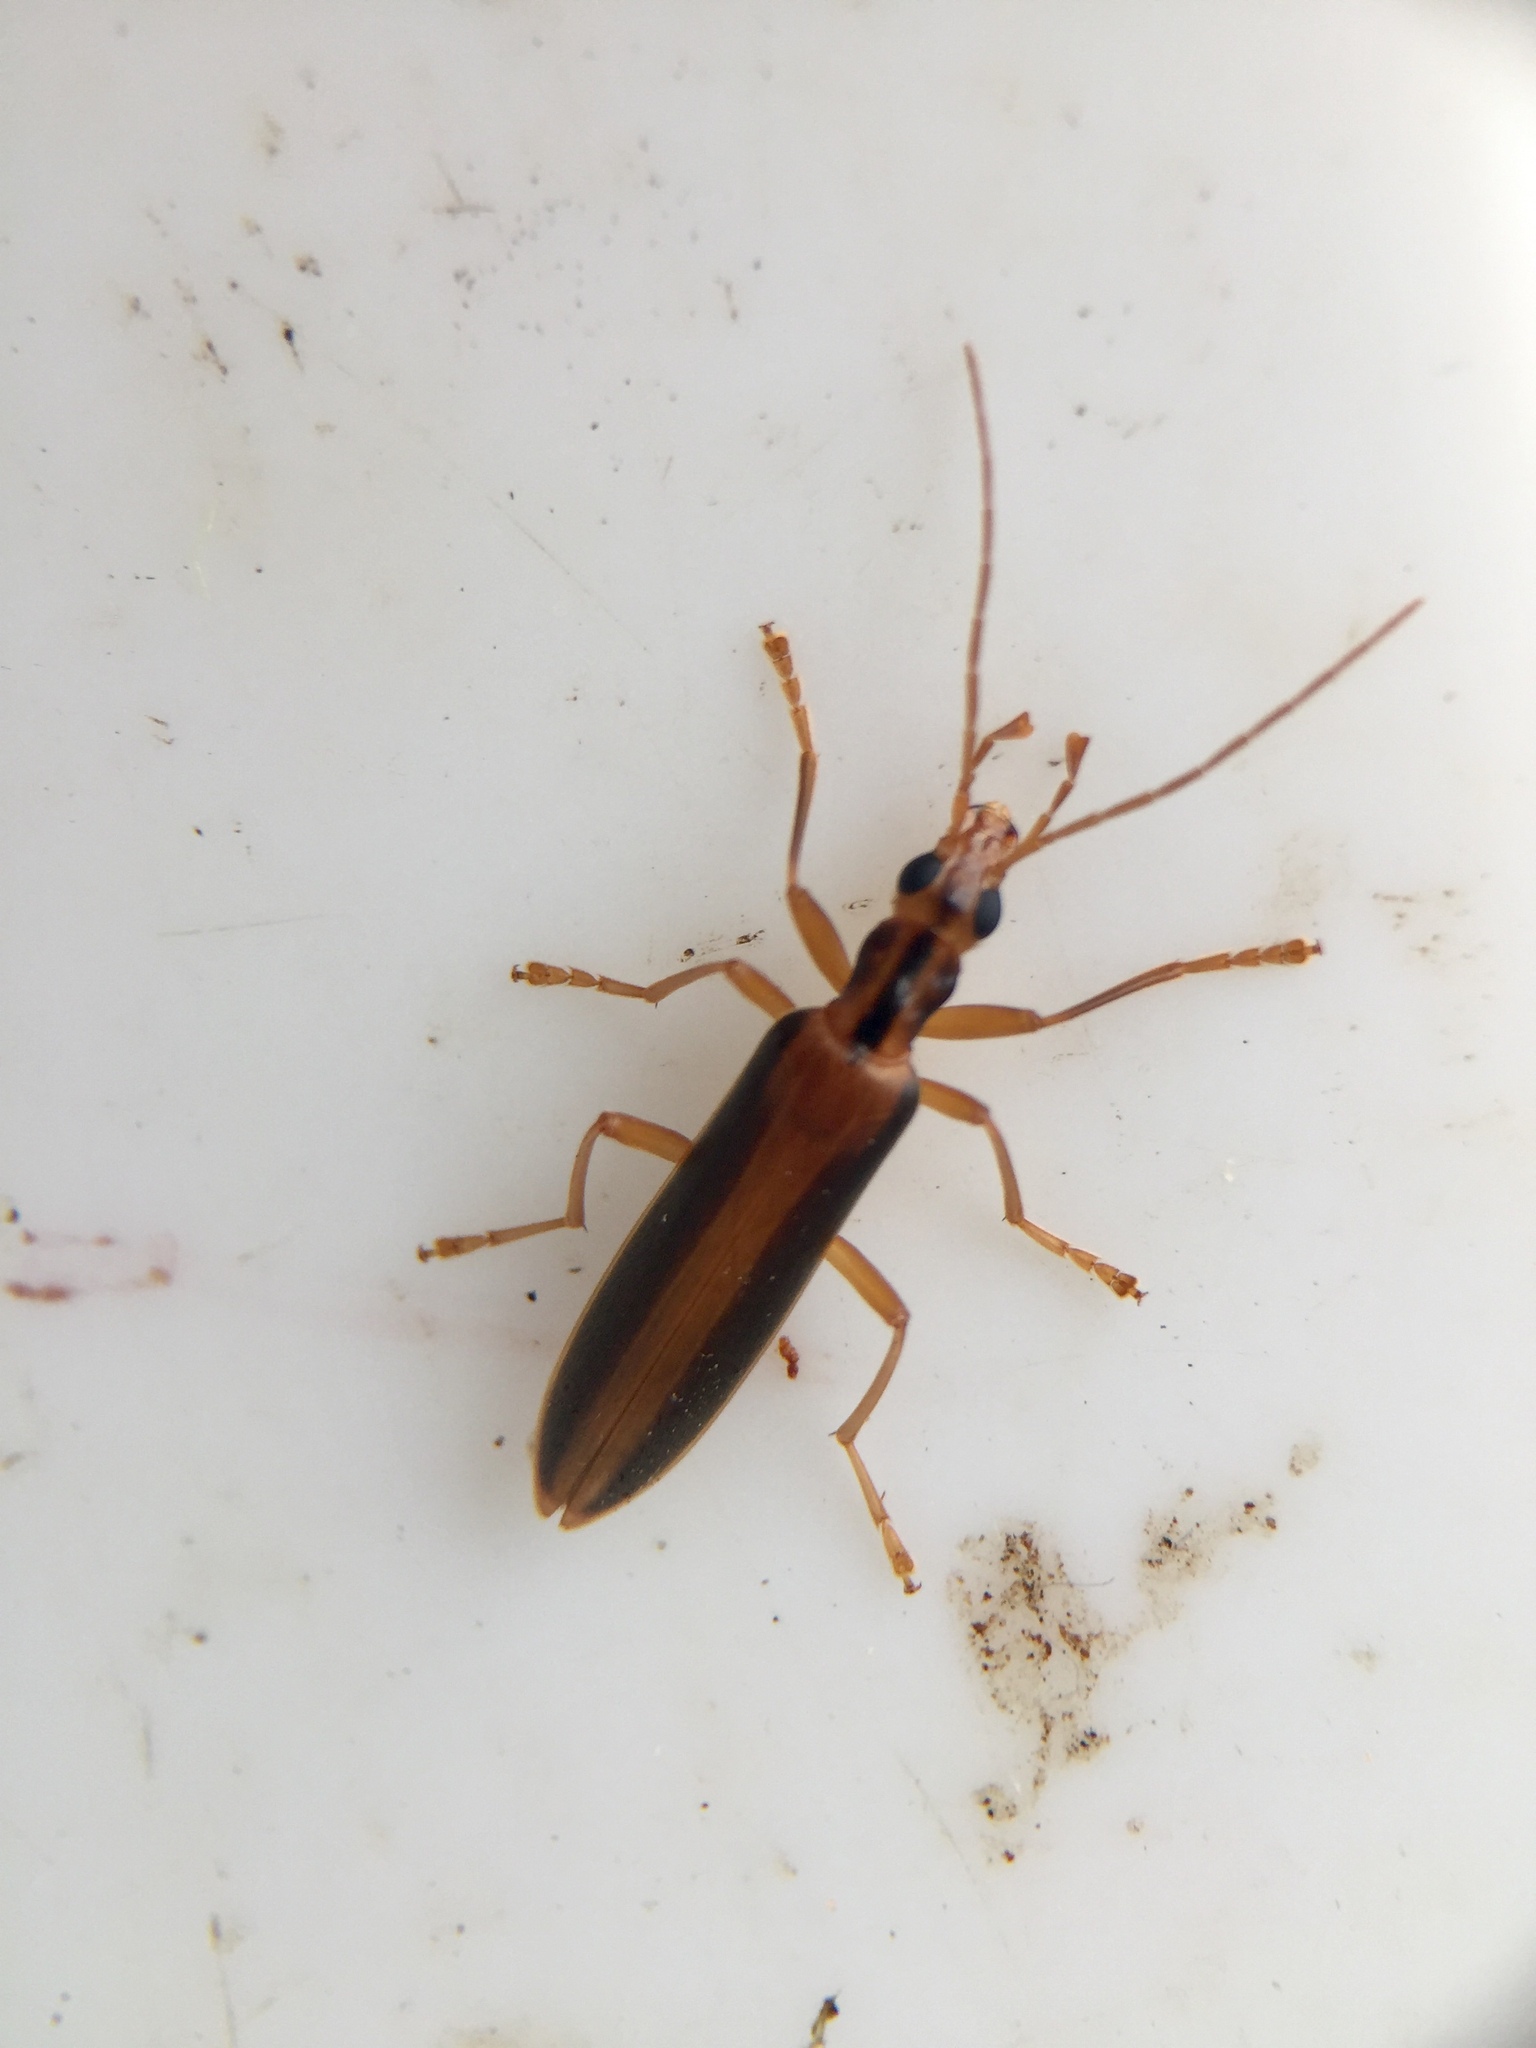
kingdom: Animalia
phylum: Arthropoda
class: Insecta
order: Coleoptera
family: Oedemeridae
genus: Thelyphassa
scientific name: Thelyphassa
